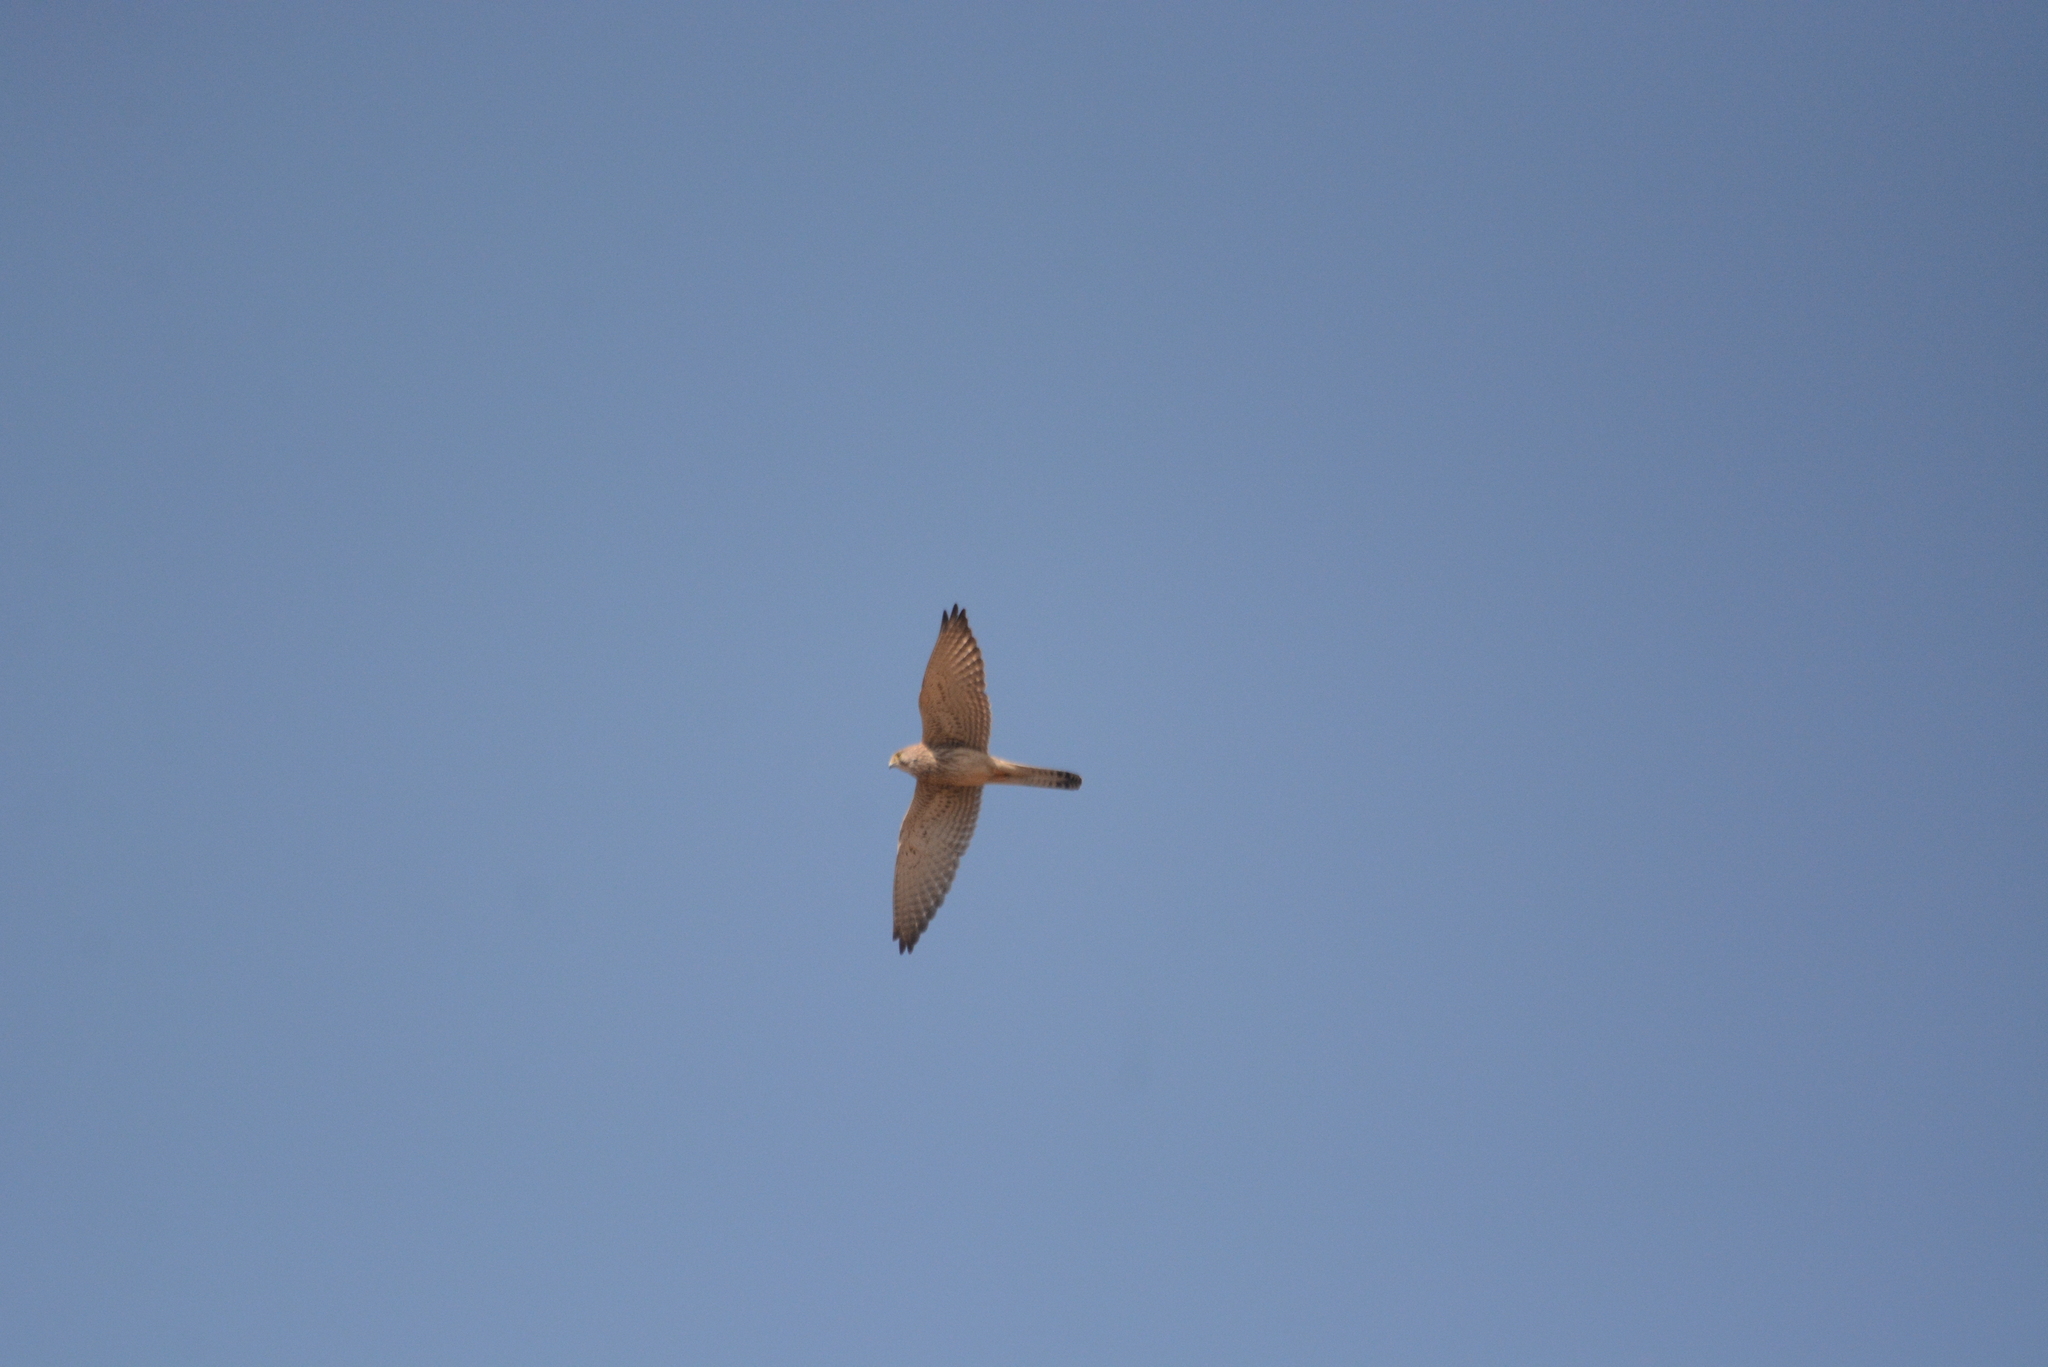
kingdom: Animalia
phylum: Chordata
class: Aves
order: Falconiformes
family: Falconidae
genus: Falco
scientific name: Falco tinnunculus
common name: Common kestrel
